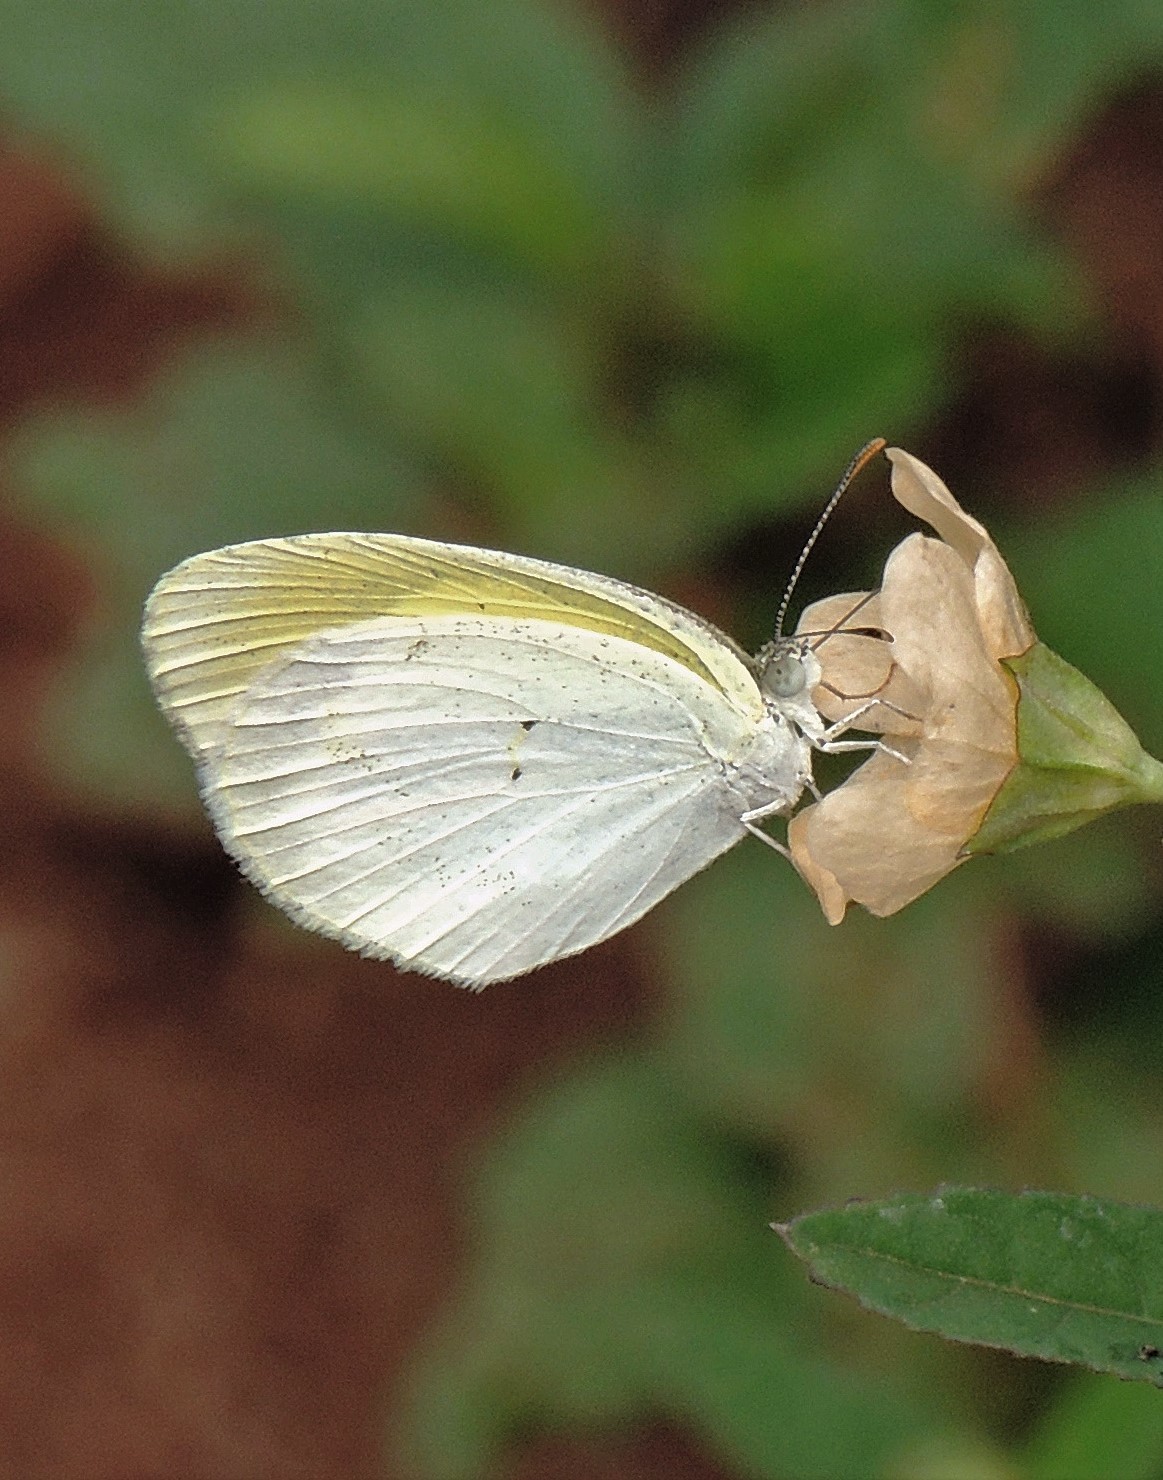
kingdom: Animalia
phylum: Arthropoda
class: Insecta
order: Lepidoptera
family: Pieridae
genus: Eurema
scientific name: Eurema elathea
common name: Banded yellow
